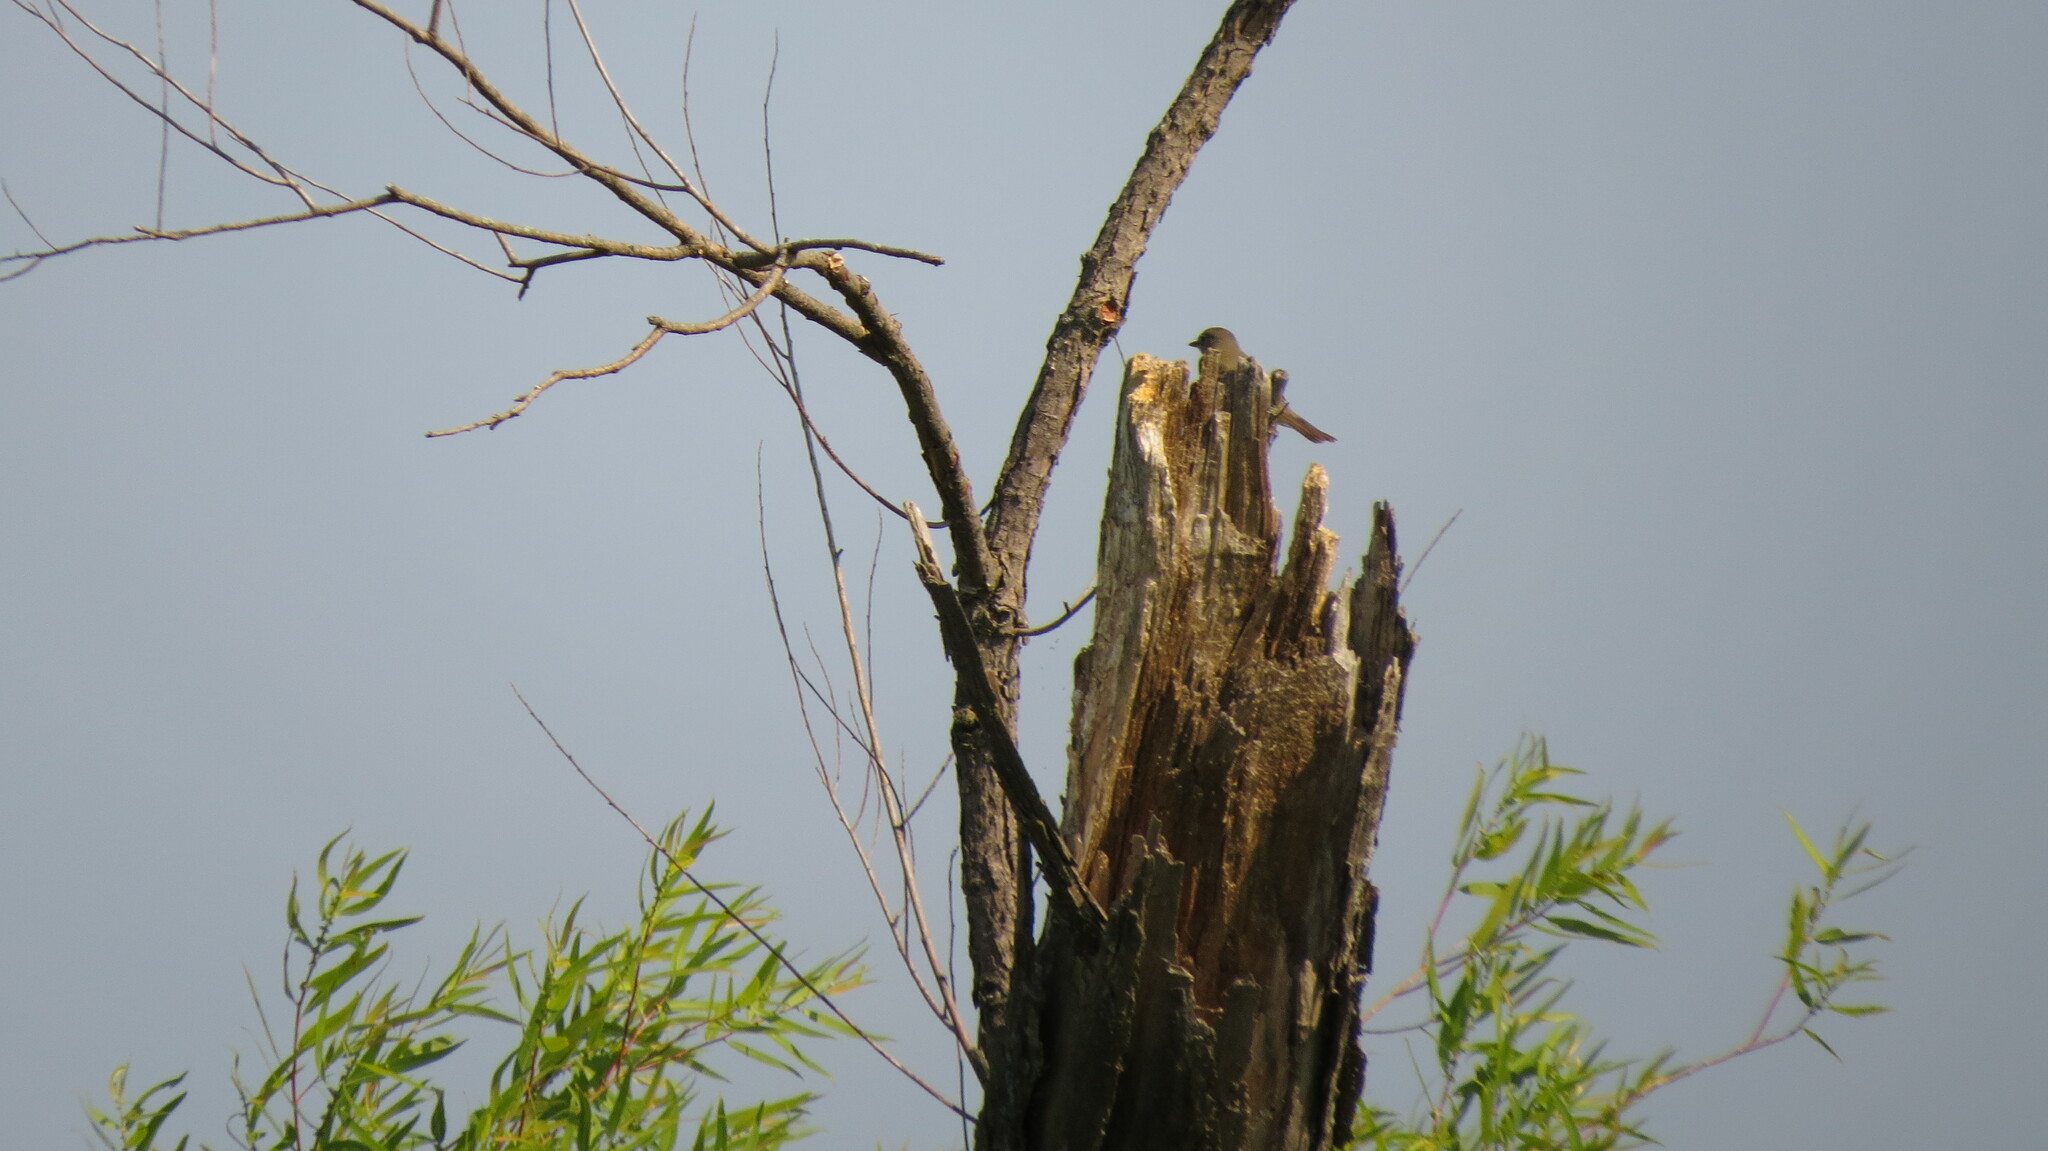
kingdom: Animalia
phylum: Chordata
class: Aves
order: Passeriformes
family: Tyrannidae
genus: Empidonax
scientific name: Empidonax traillii
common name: Willow flycatcher
